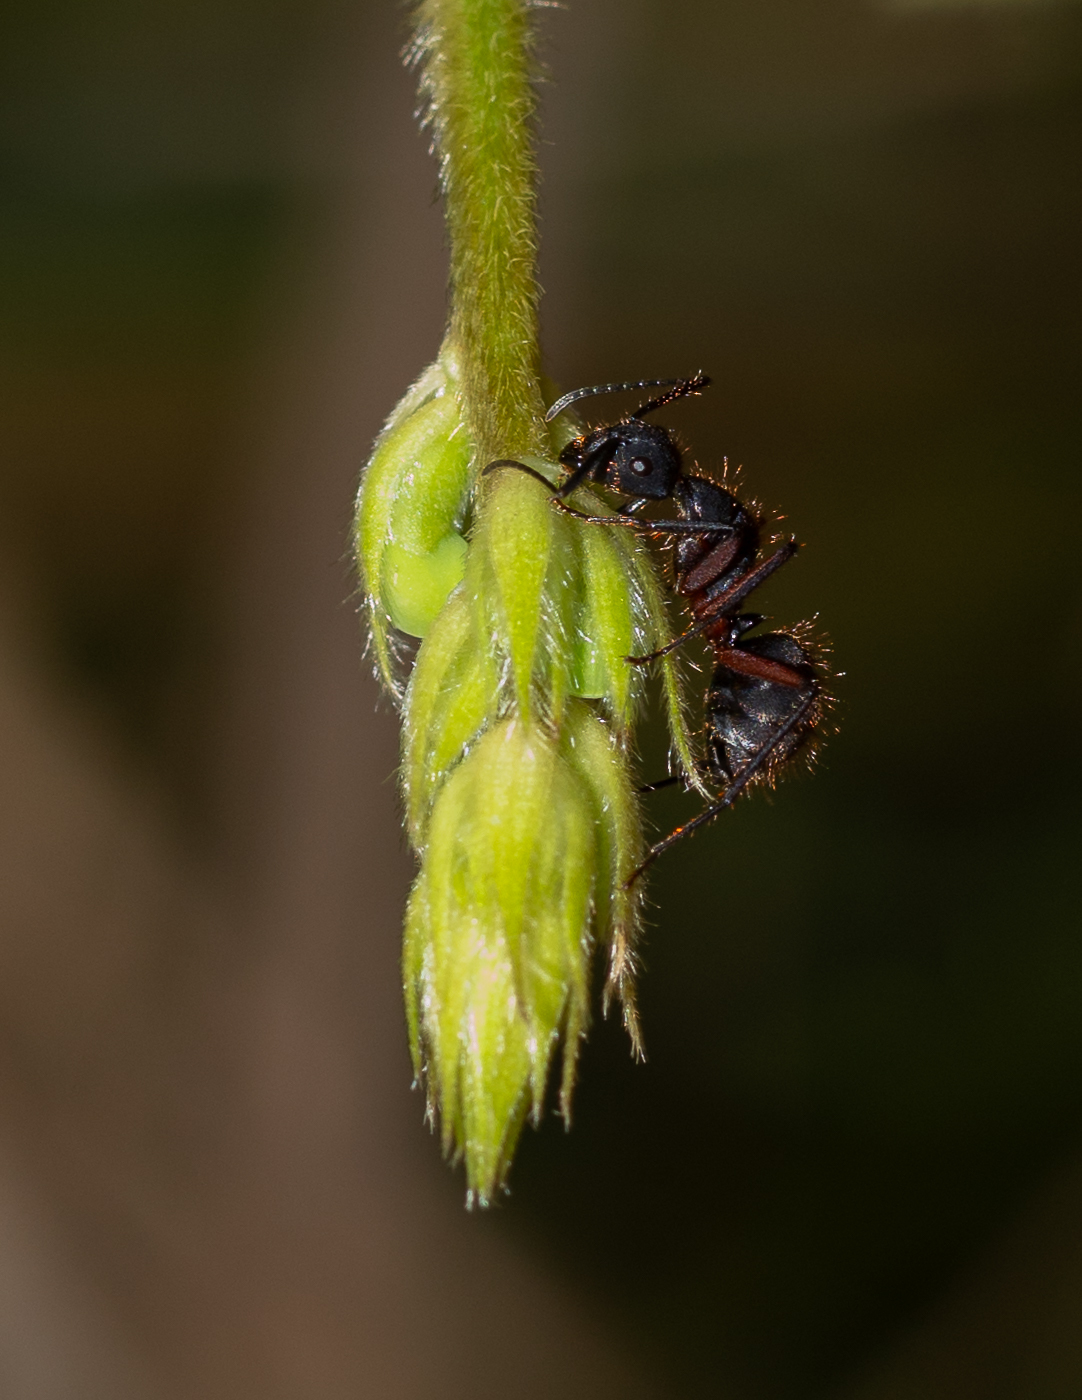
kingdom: Animalia
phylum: Arthropoda
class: Insecta
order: Hymenoptera
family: Formicidae
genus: Camponotus
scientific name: Camponotus rufipes
